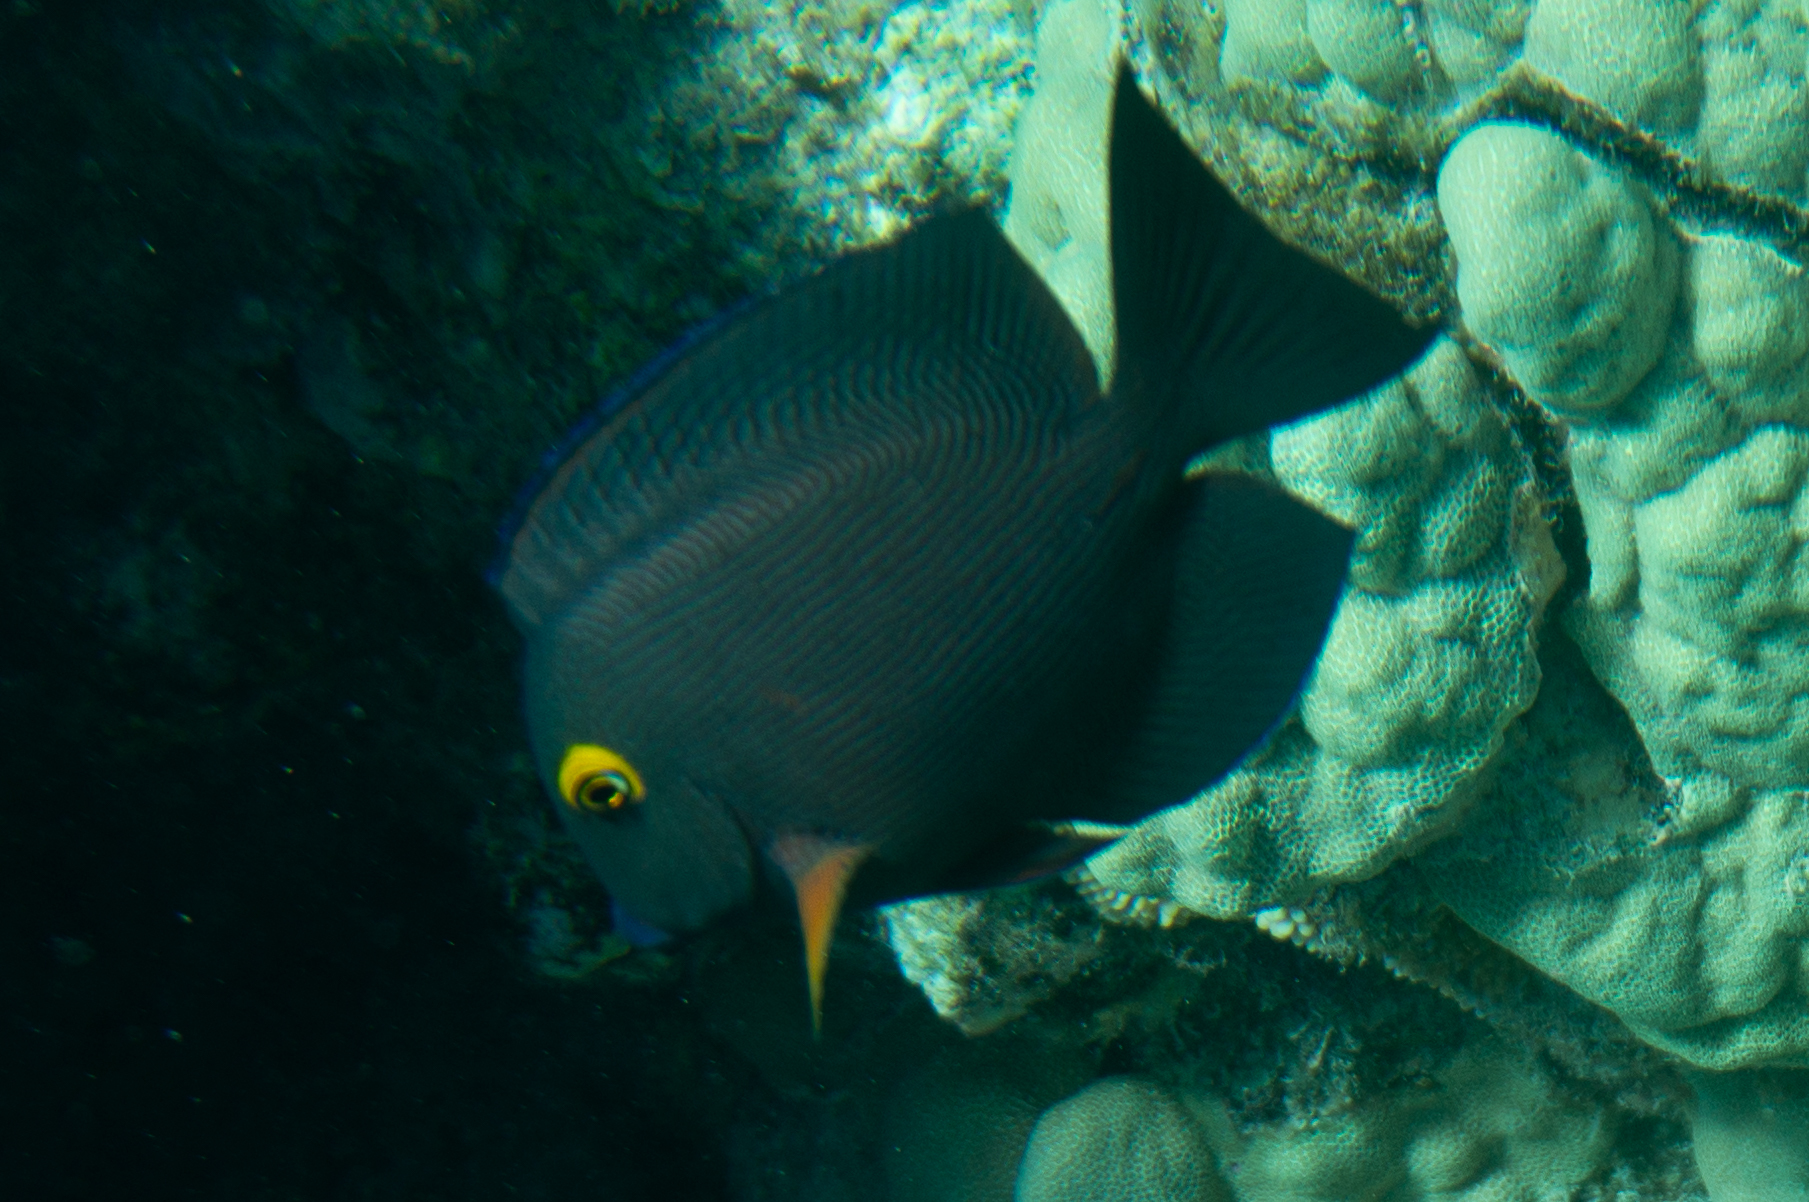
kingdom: Animalia
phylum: Chordata
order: Perciformes
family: Acanthuridae
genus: Ctenochaetus
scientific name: Ctenochaetus strigosus
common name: Bristletoothed surgeonfish
